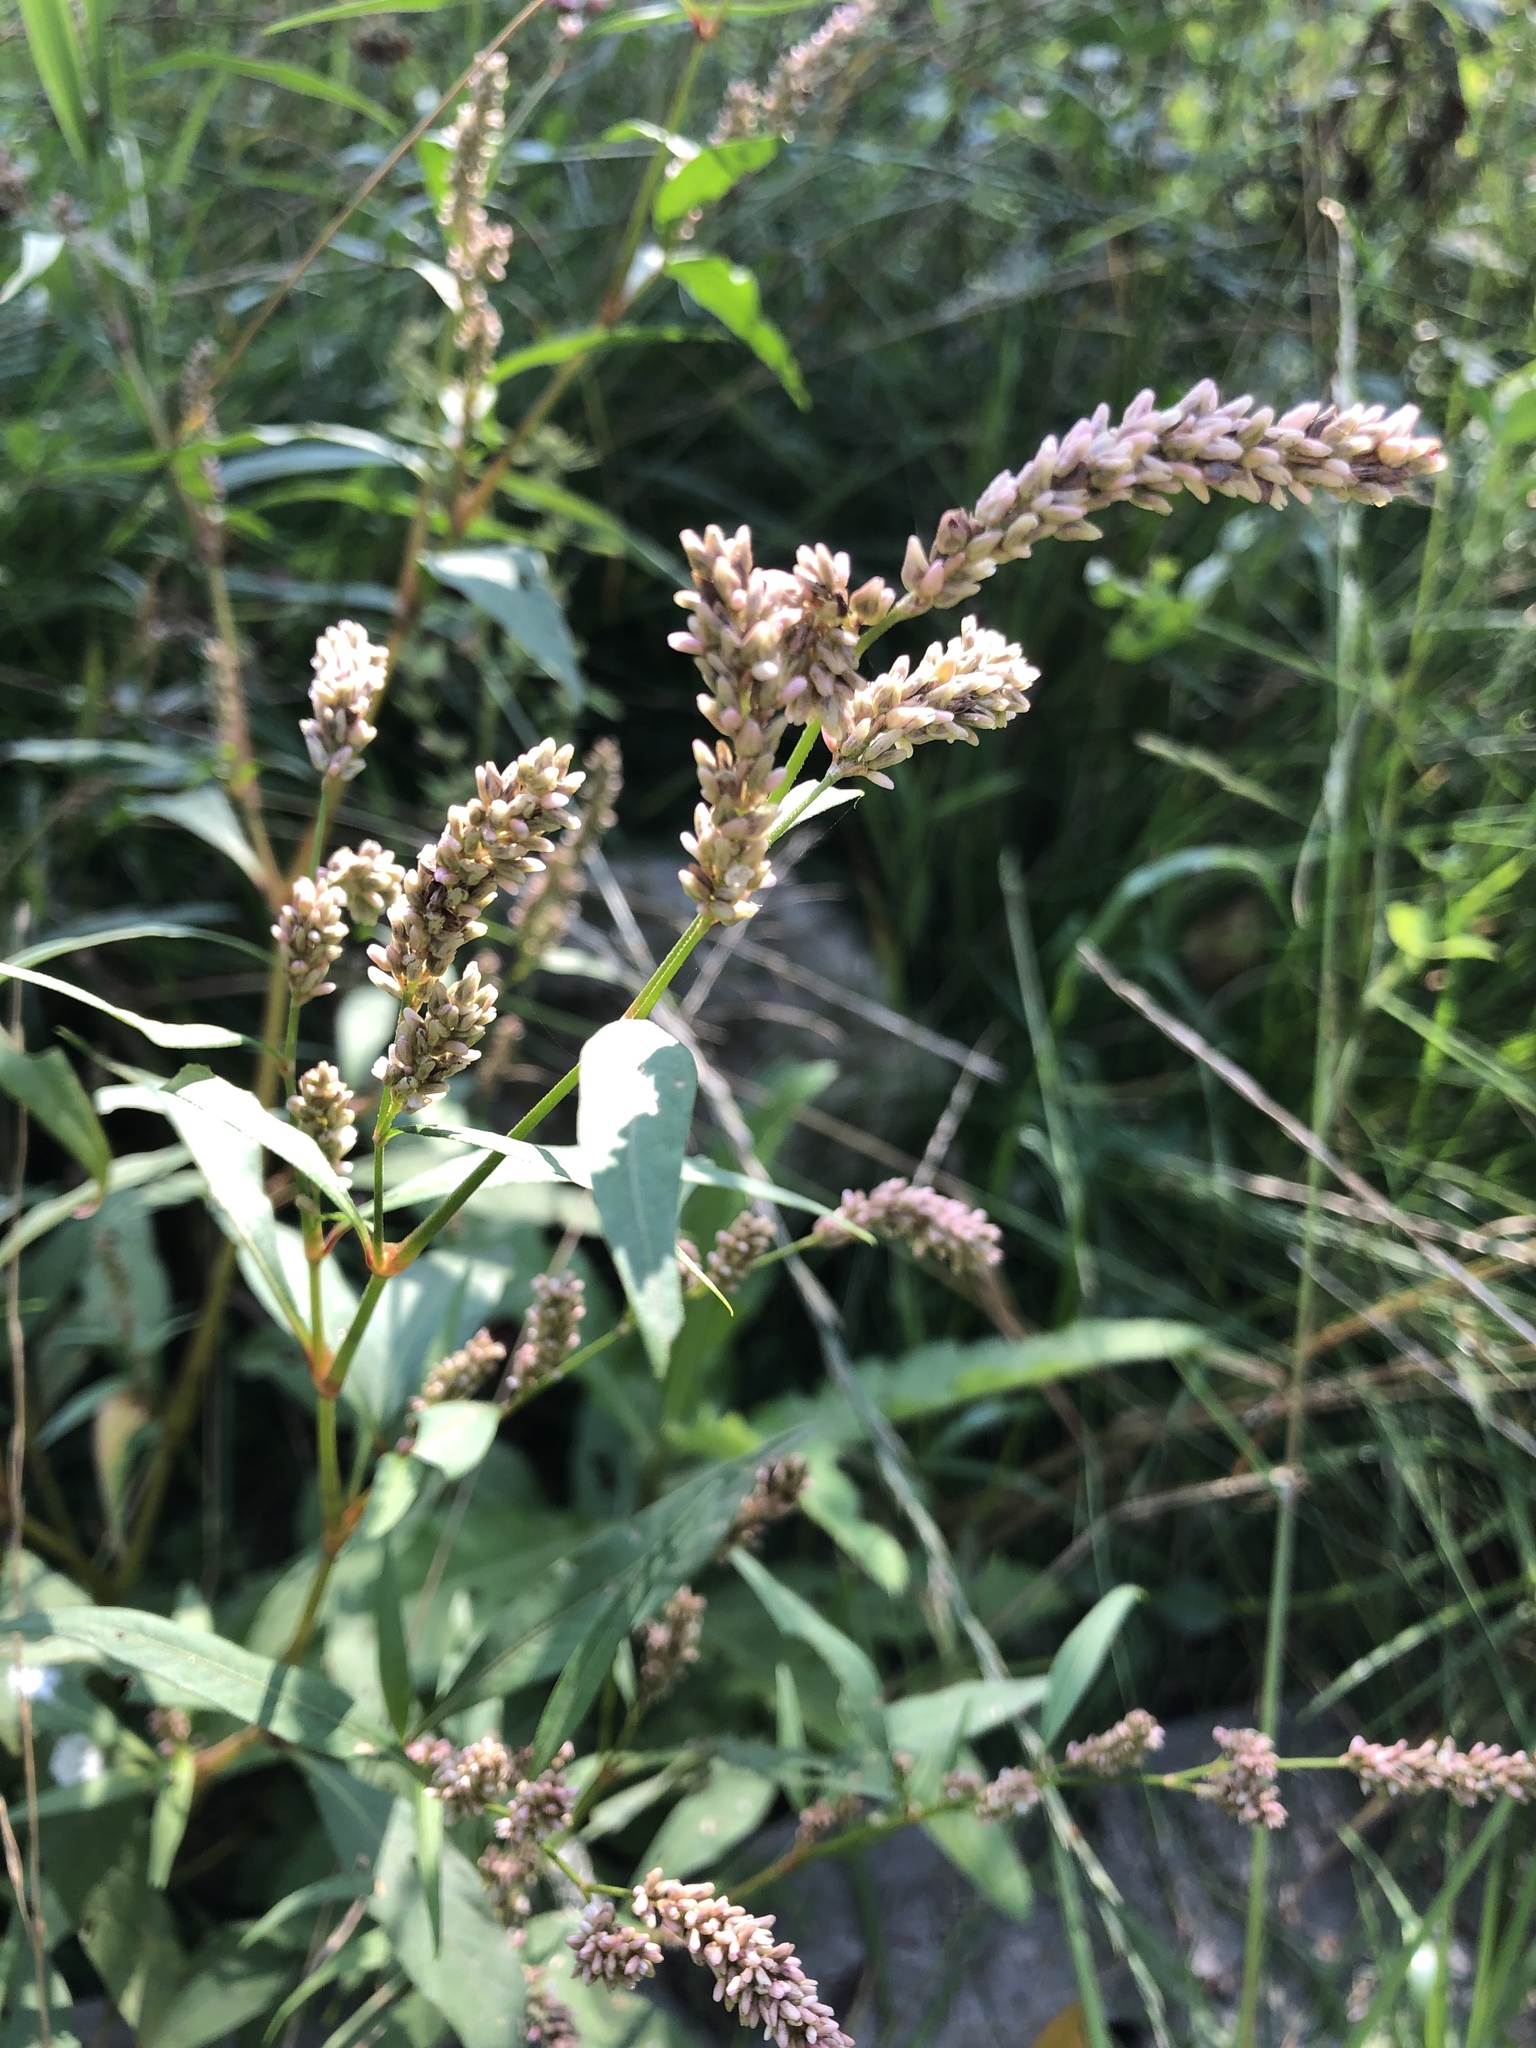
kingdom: Plantae
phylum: Tracheophyta
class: Magnoliopsida
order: Caryophyllales
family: Polygonaceae
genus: Persicaria
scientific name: Persicaria lapathifolia
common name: Curlytop knotweed
